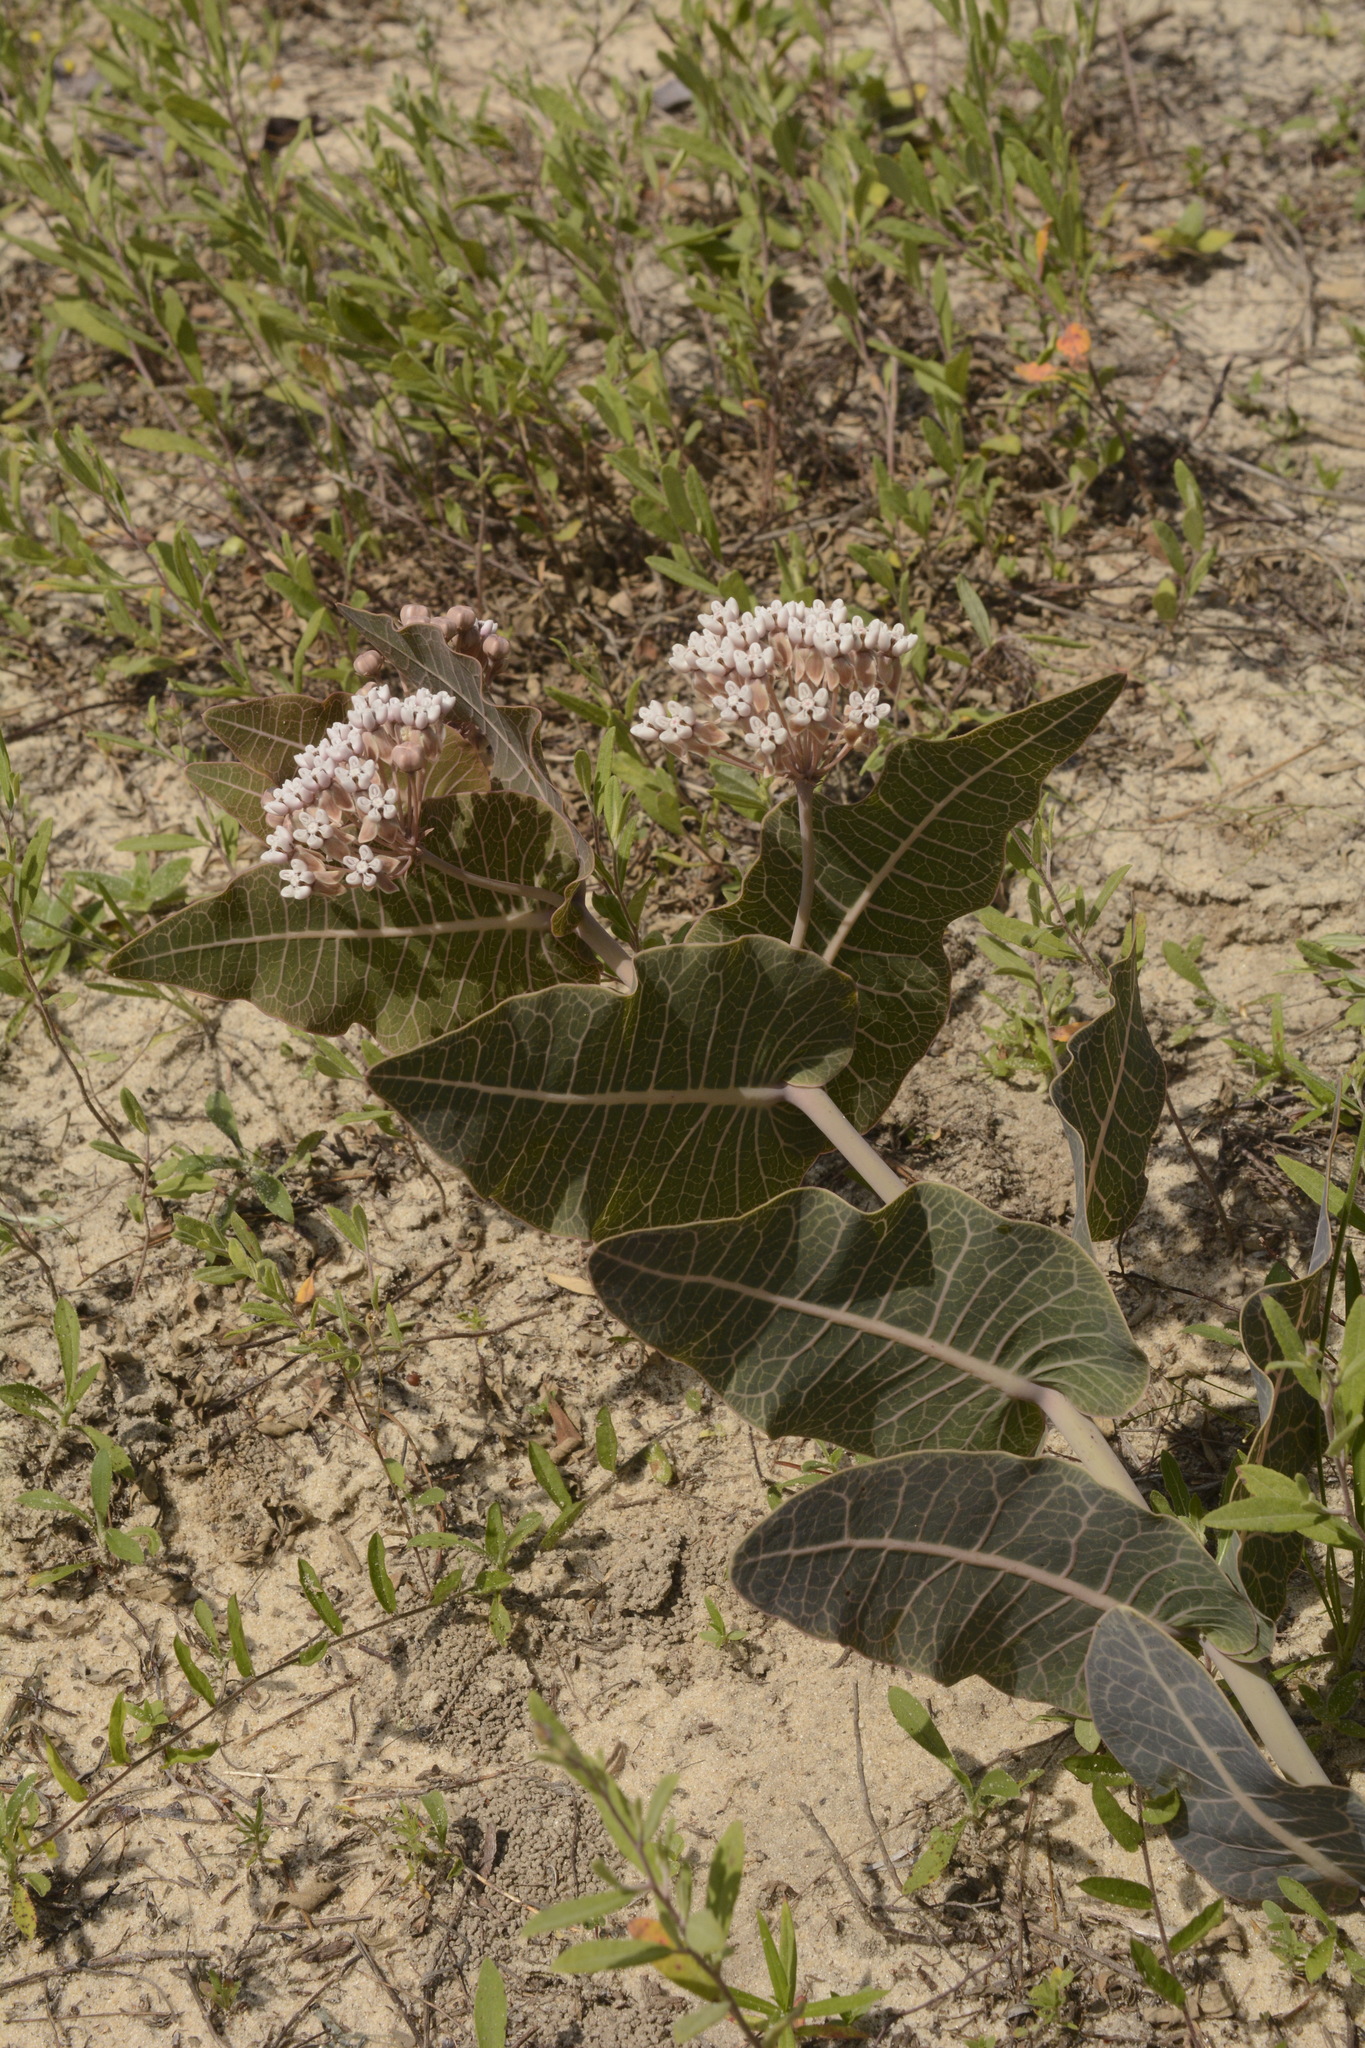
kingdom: Plantae
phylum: Tracheophyta
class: Magnoliopsida
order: Gentianales
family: Apocynaceae
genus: Asclepias
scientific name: Asclepias humistrata
